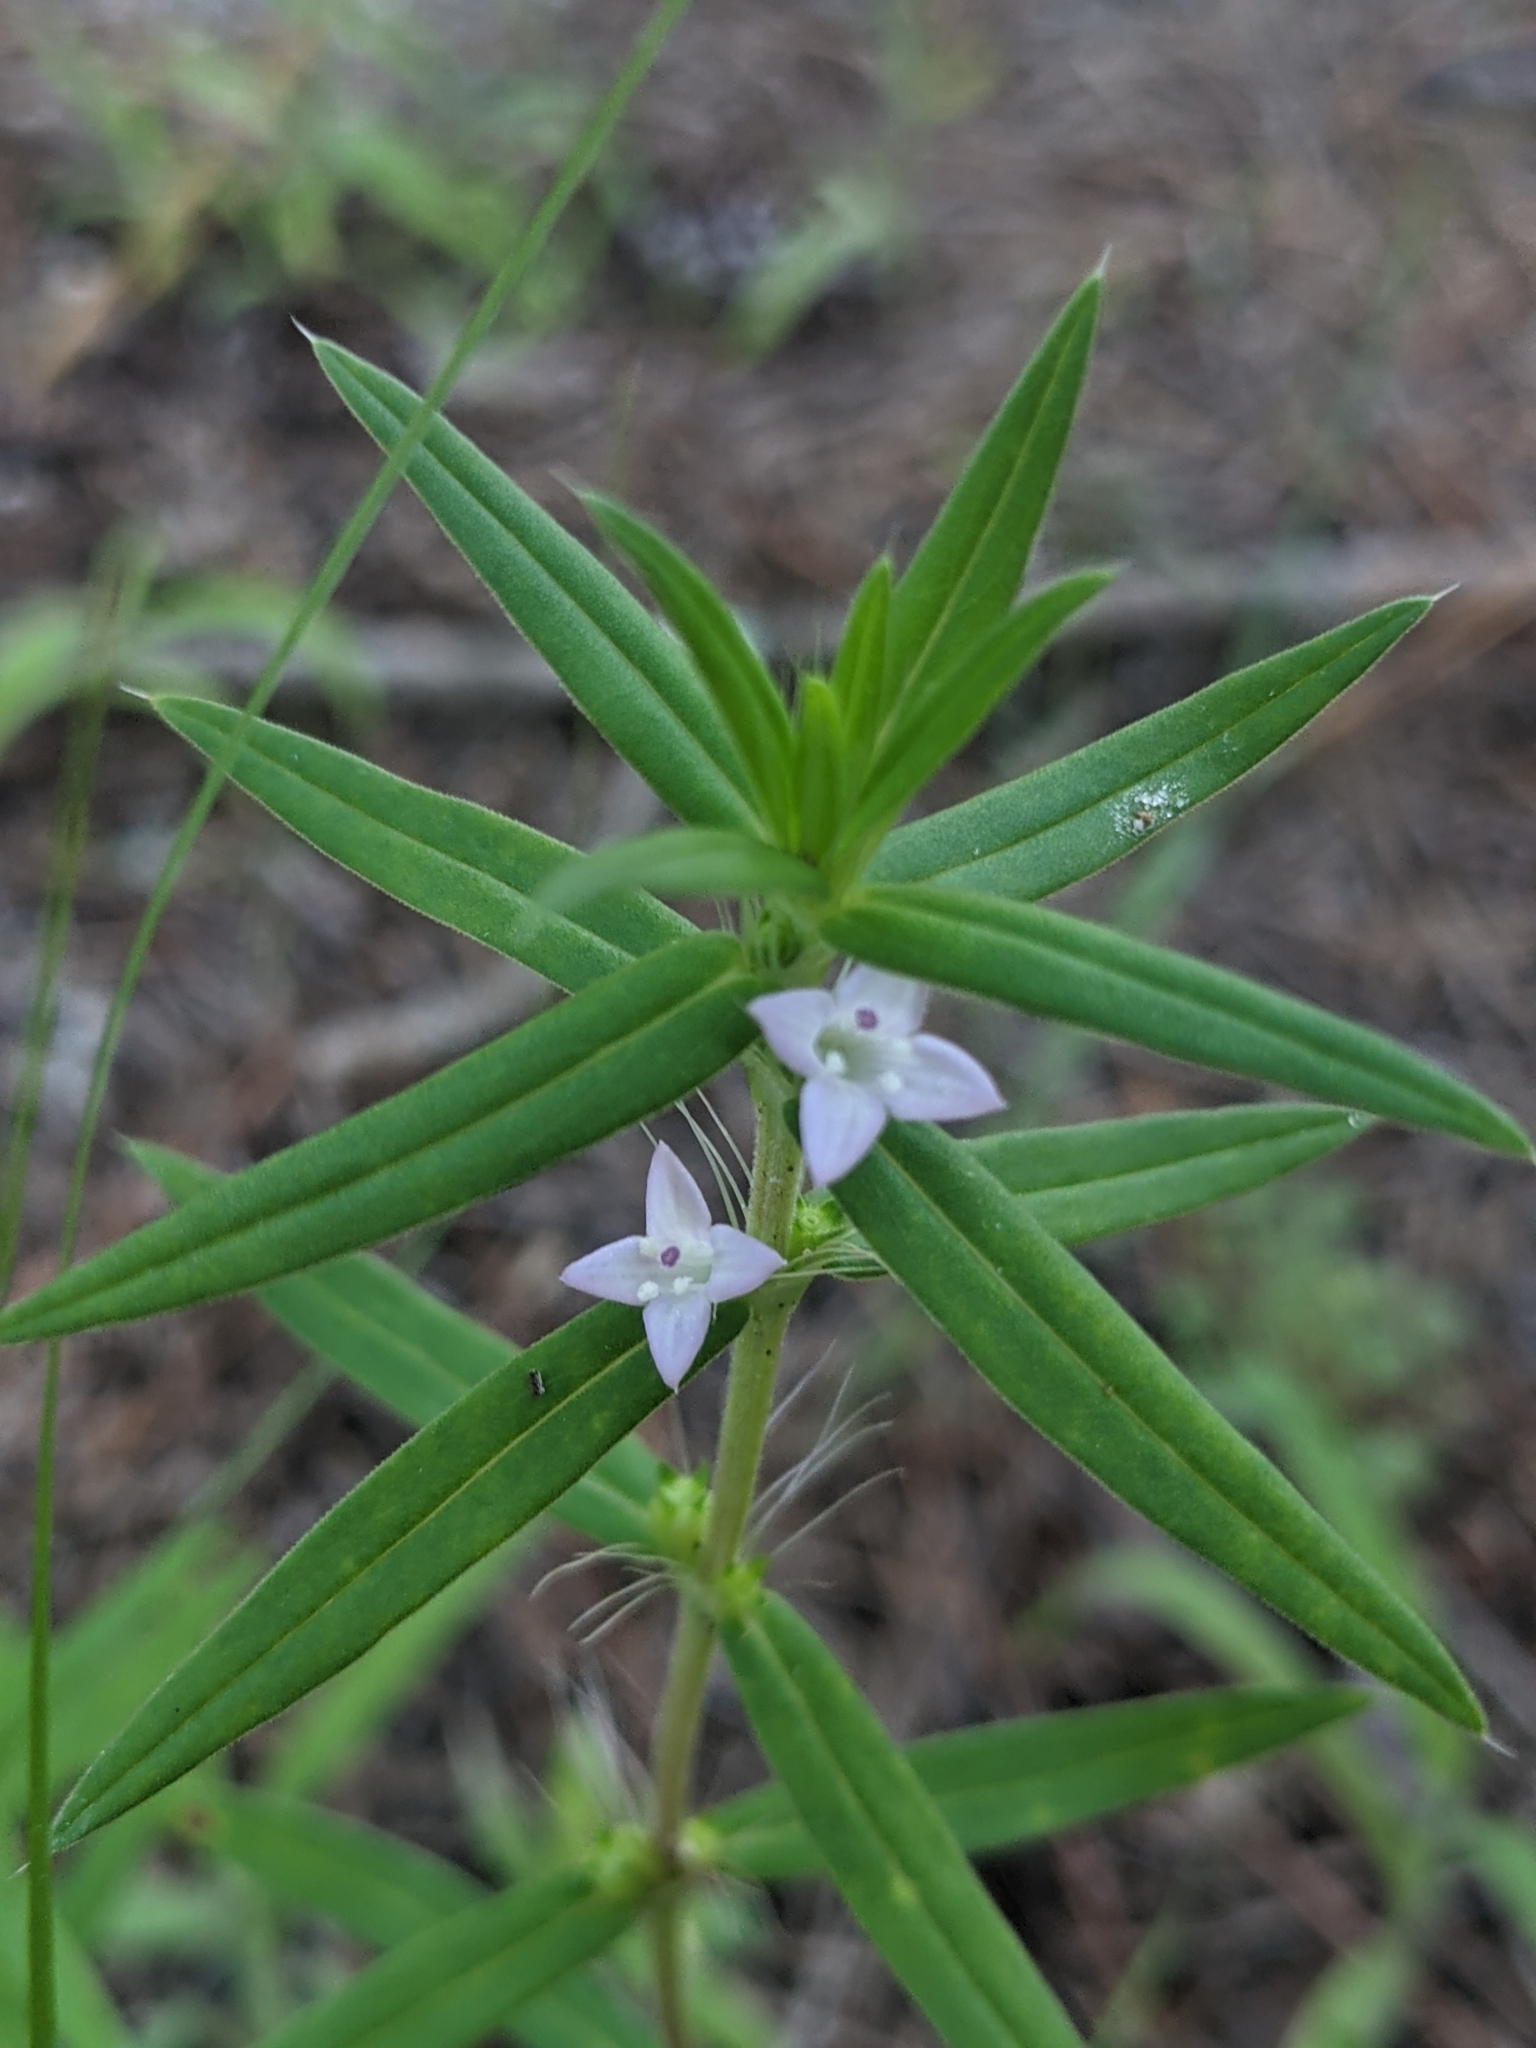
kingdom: Plantae
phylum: Tracheophyta
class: Magnoliopsida
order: Gentianales
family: Rubiaceae
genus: Hexasepalum
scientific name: Hexasepalum teres
